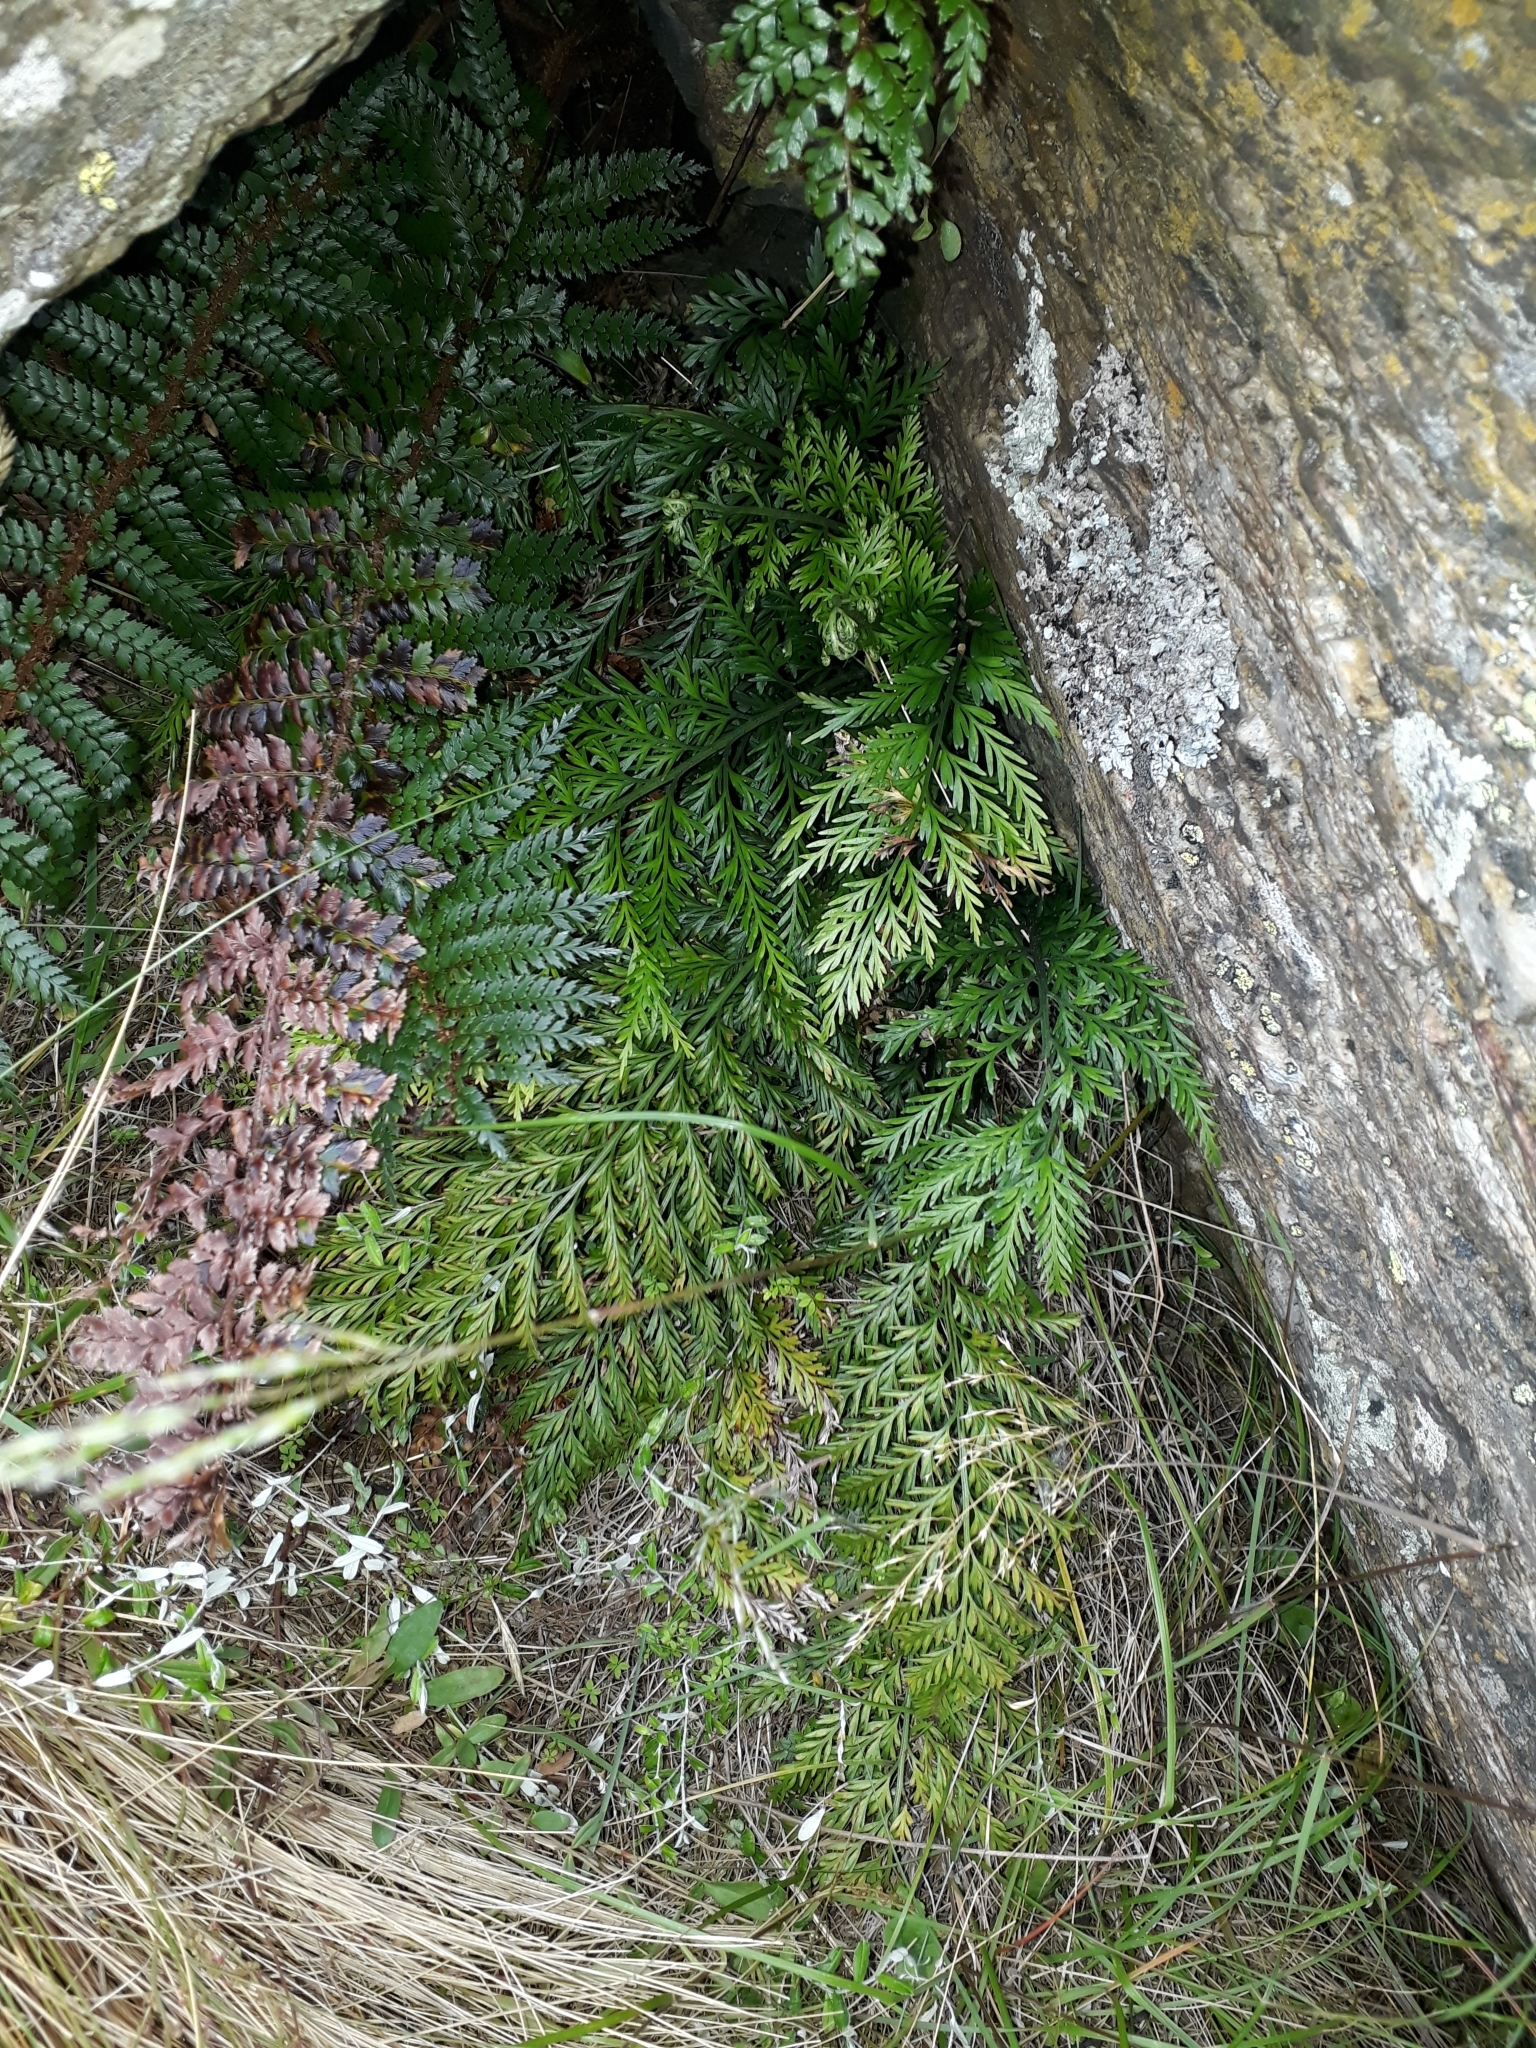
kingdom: Plantae
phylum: Tracheophyta
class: Polypodiopsida
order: Polypodiales
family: Aspleniaceae
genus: Asplenium
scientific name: Asplenium appendiculatum
